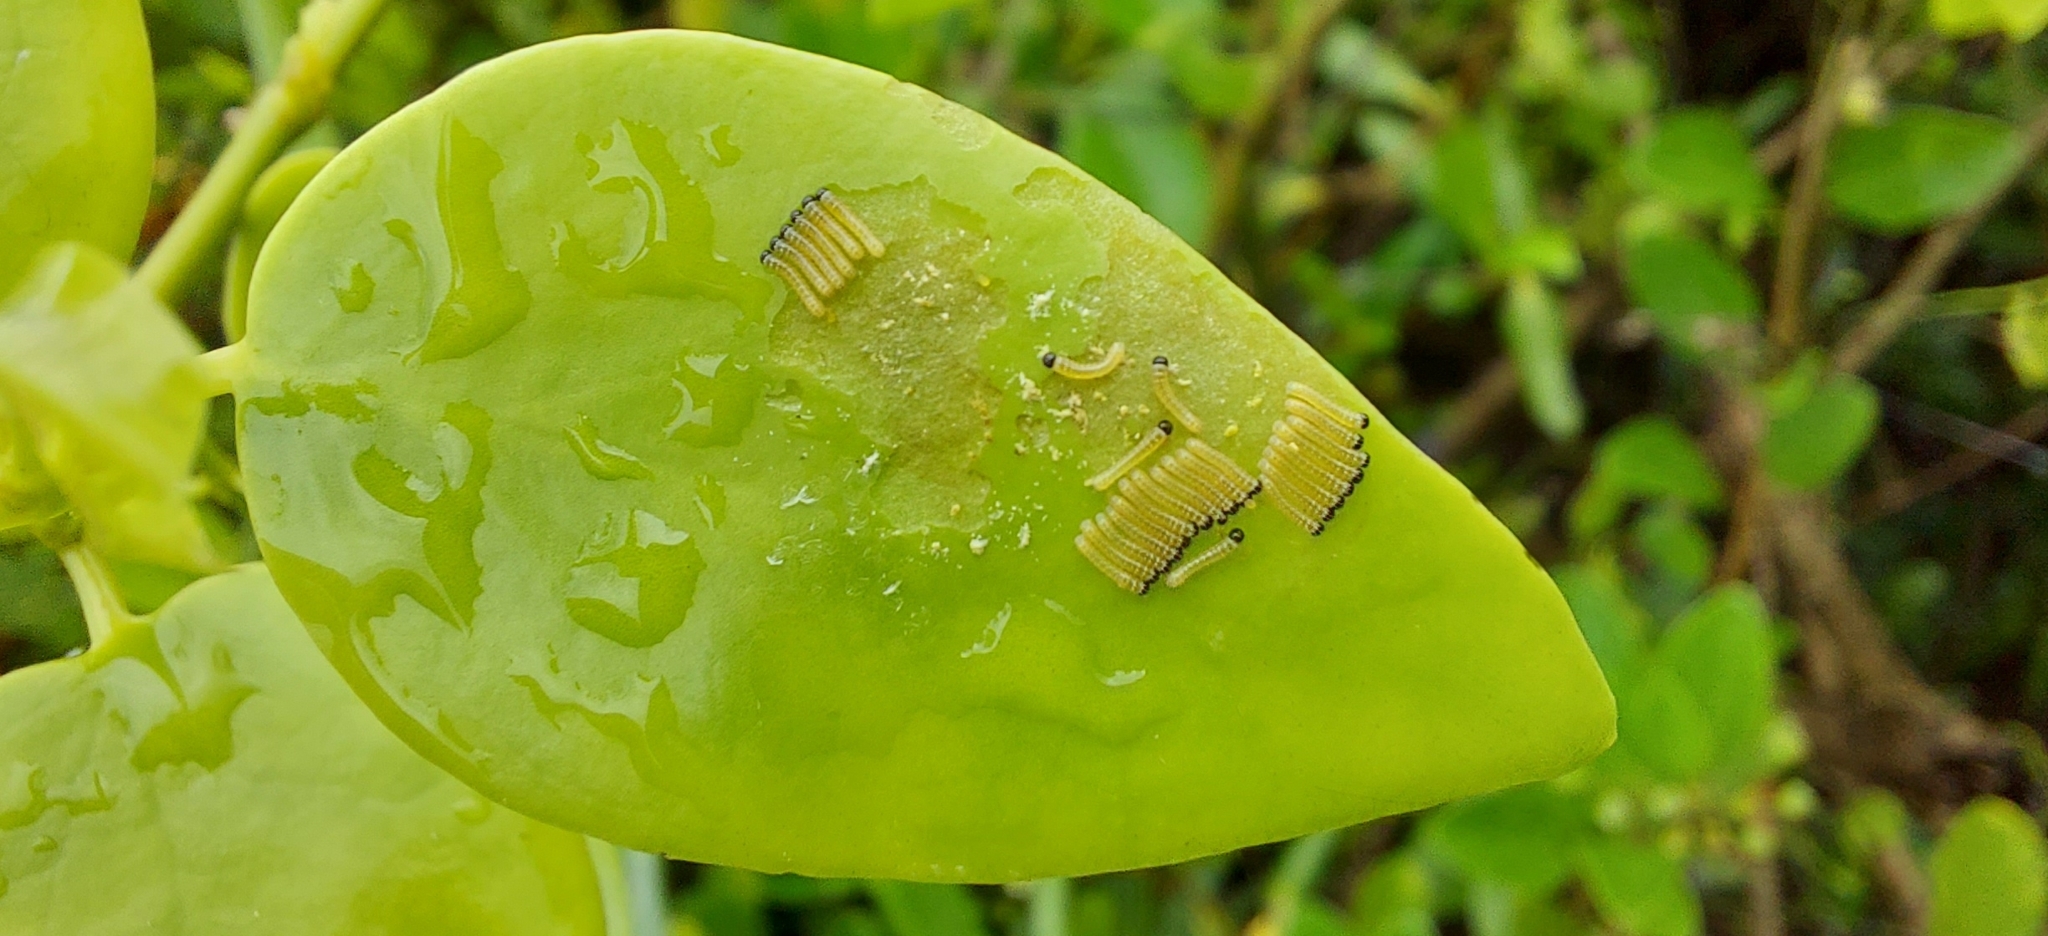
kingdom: Animalia
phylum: Arthropoda
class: Insecta
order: Lepidoptera
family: Pieridae
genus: Colotis
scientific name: Colotis amata
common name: Small salmon arab
